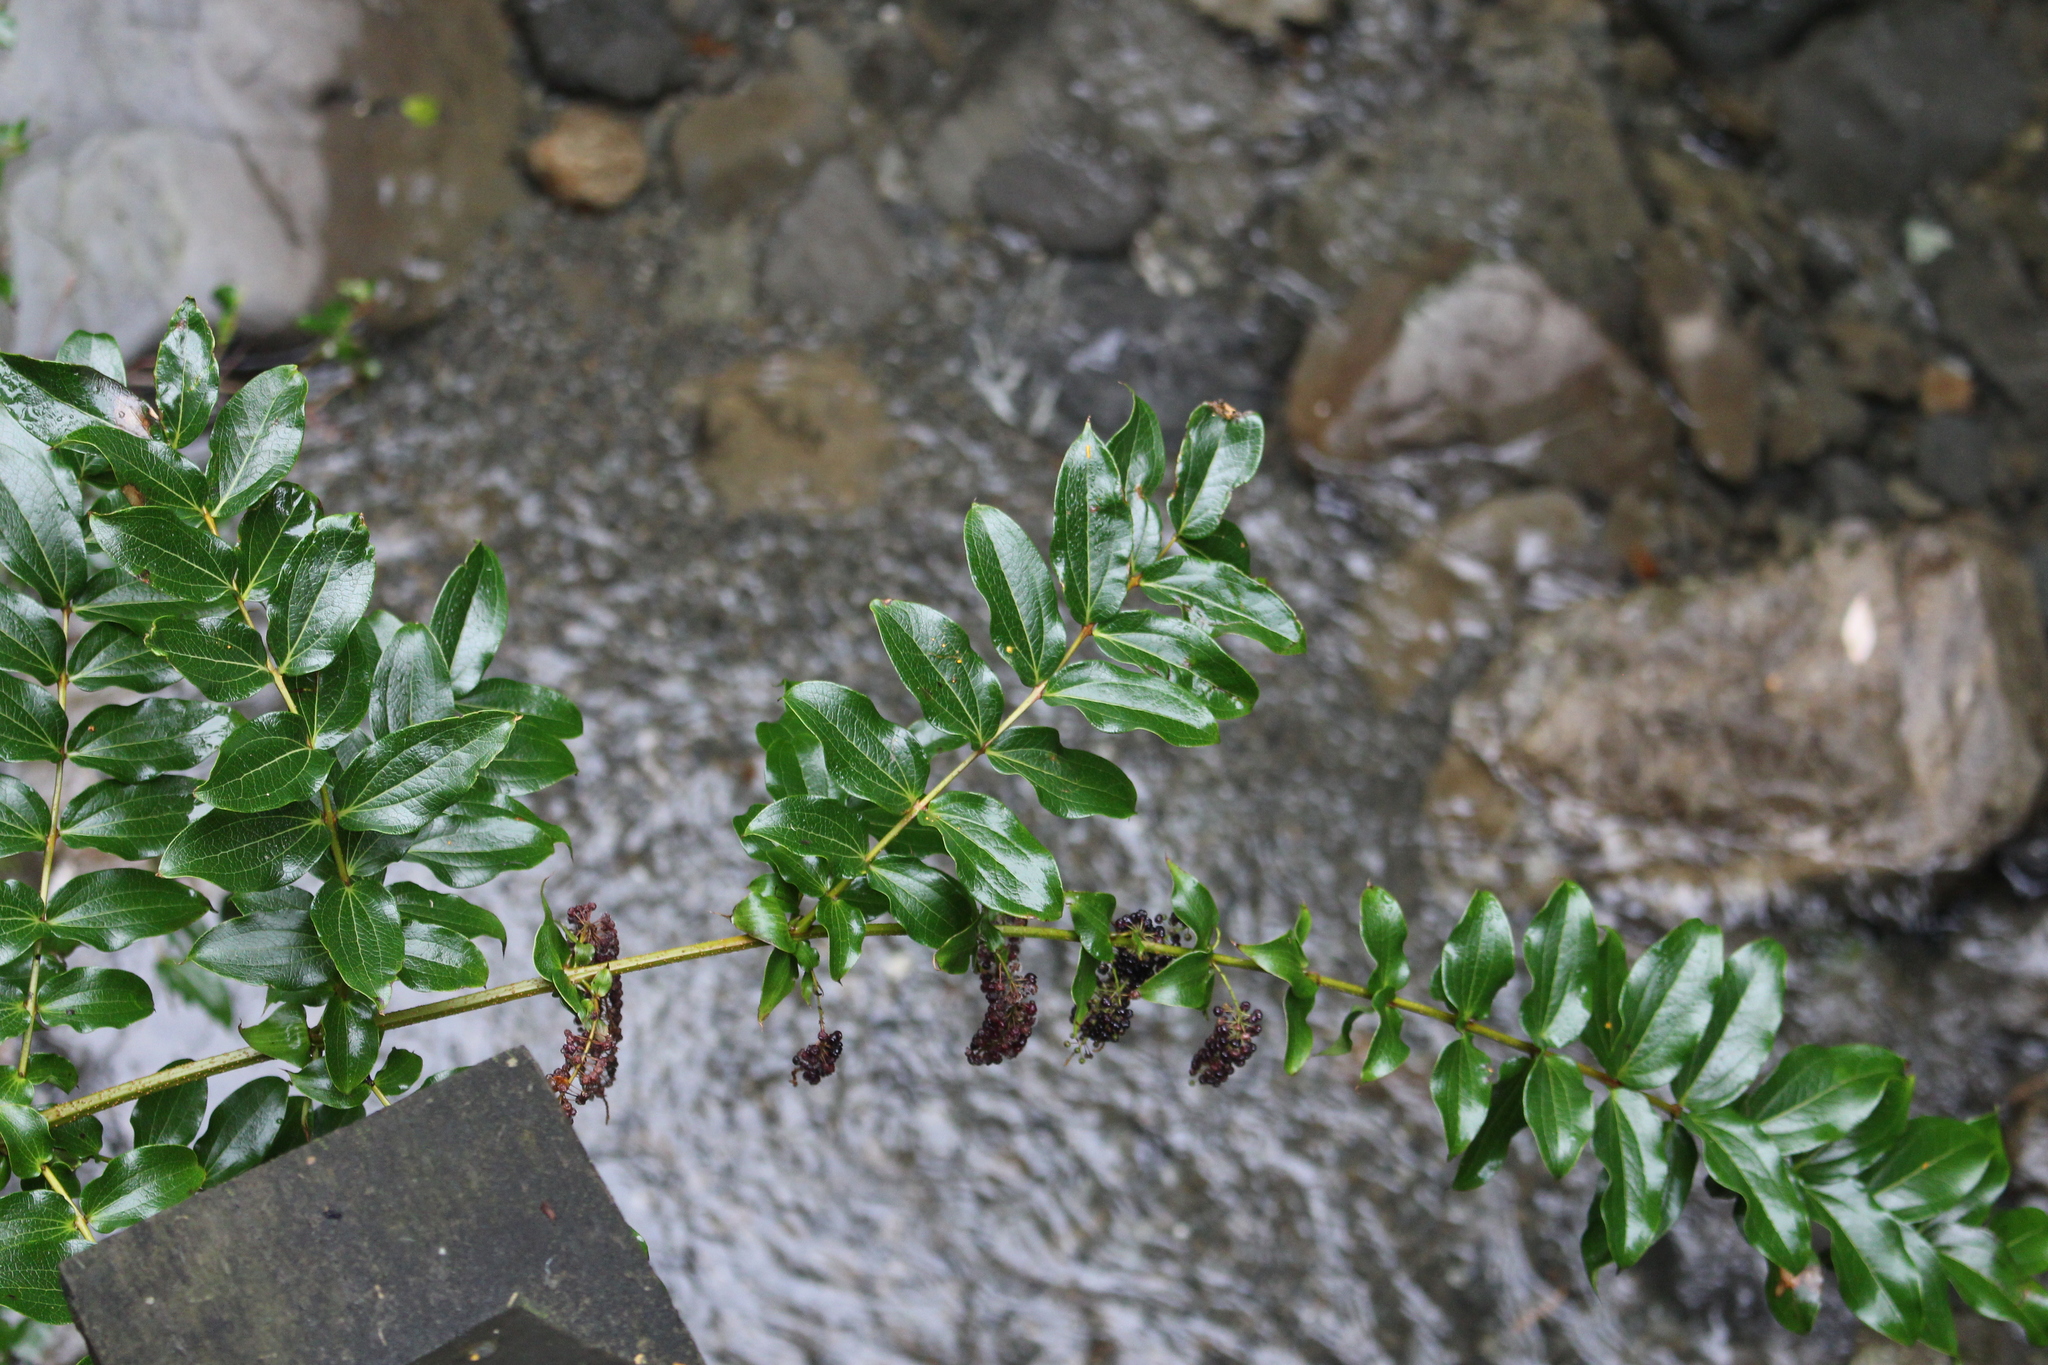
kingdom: Plantae
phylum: Tracheophyta
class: Magnoliopsida
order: Cucurbitales
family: Coriariaceae
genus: Coriaria
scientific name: Coriaria arborea
